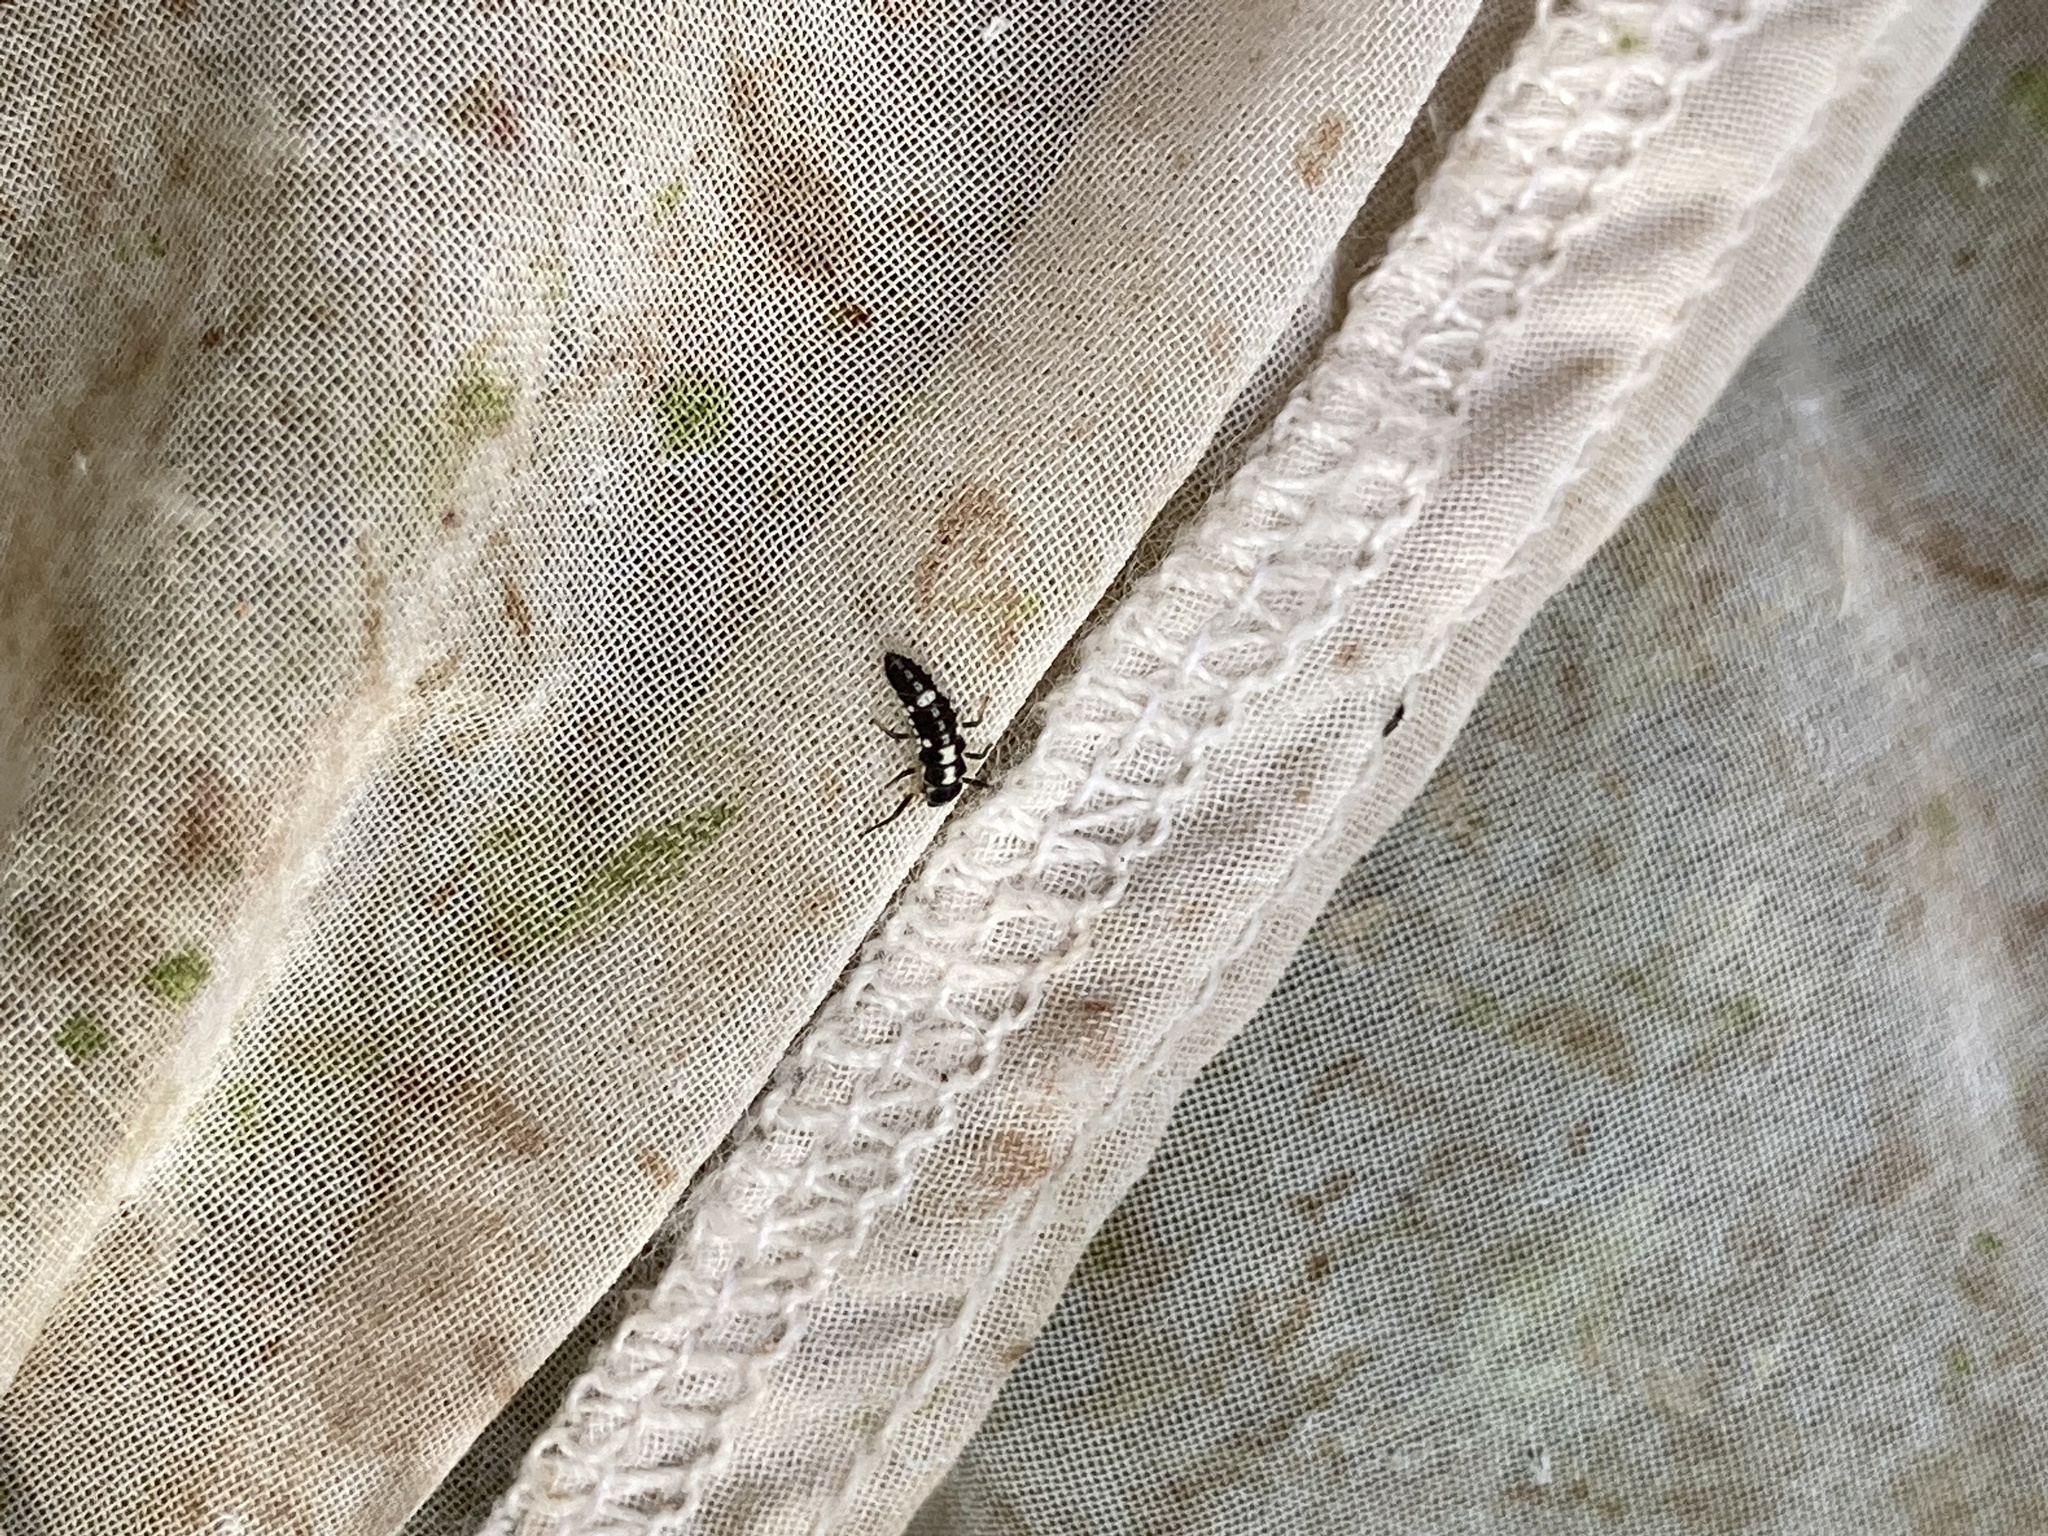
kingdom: Animalia
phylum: Arthropoda
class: Insecta
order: Coleoptera
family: Coccinellidae
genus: Propylaea
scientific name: Propylaea quatuordecimpunctata
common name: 14-spotted ladybird beetle
